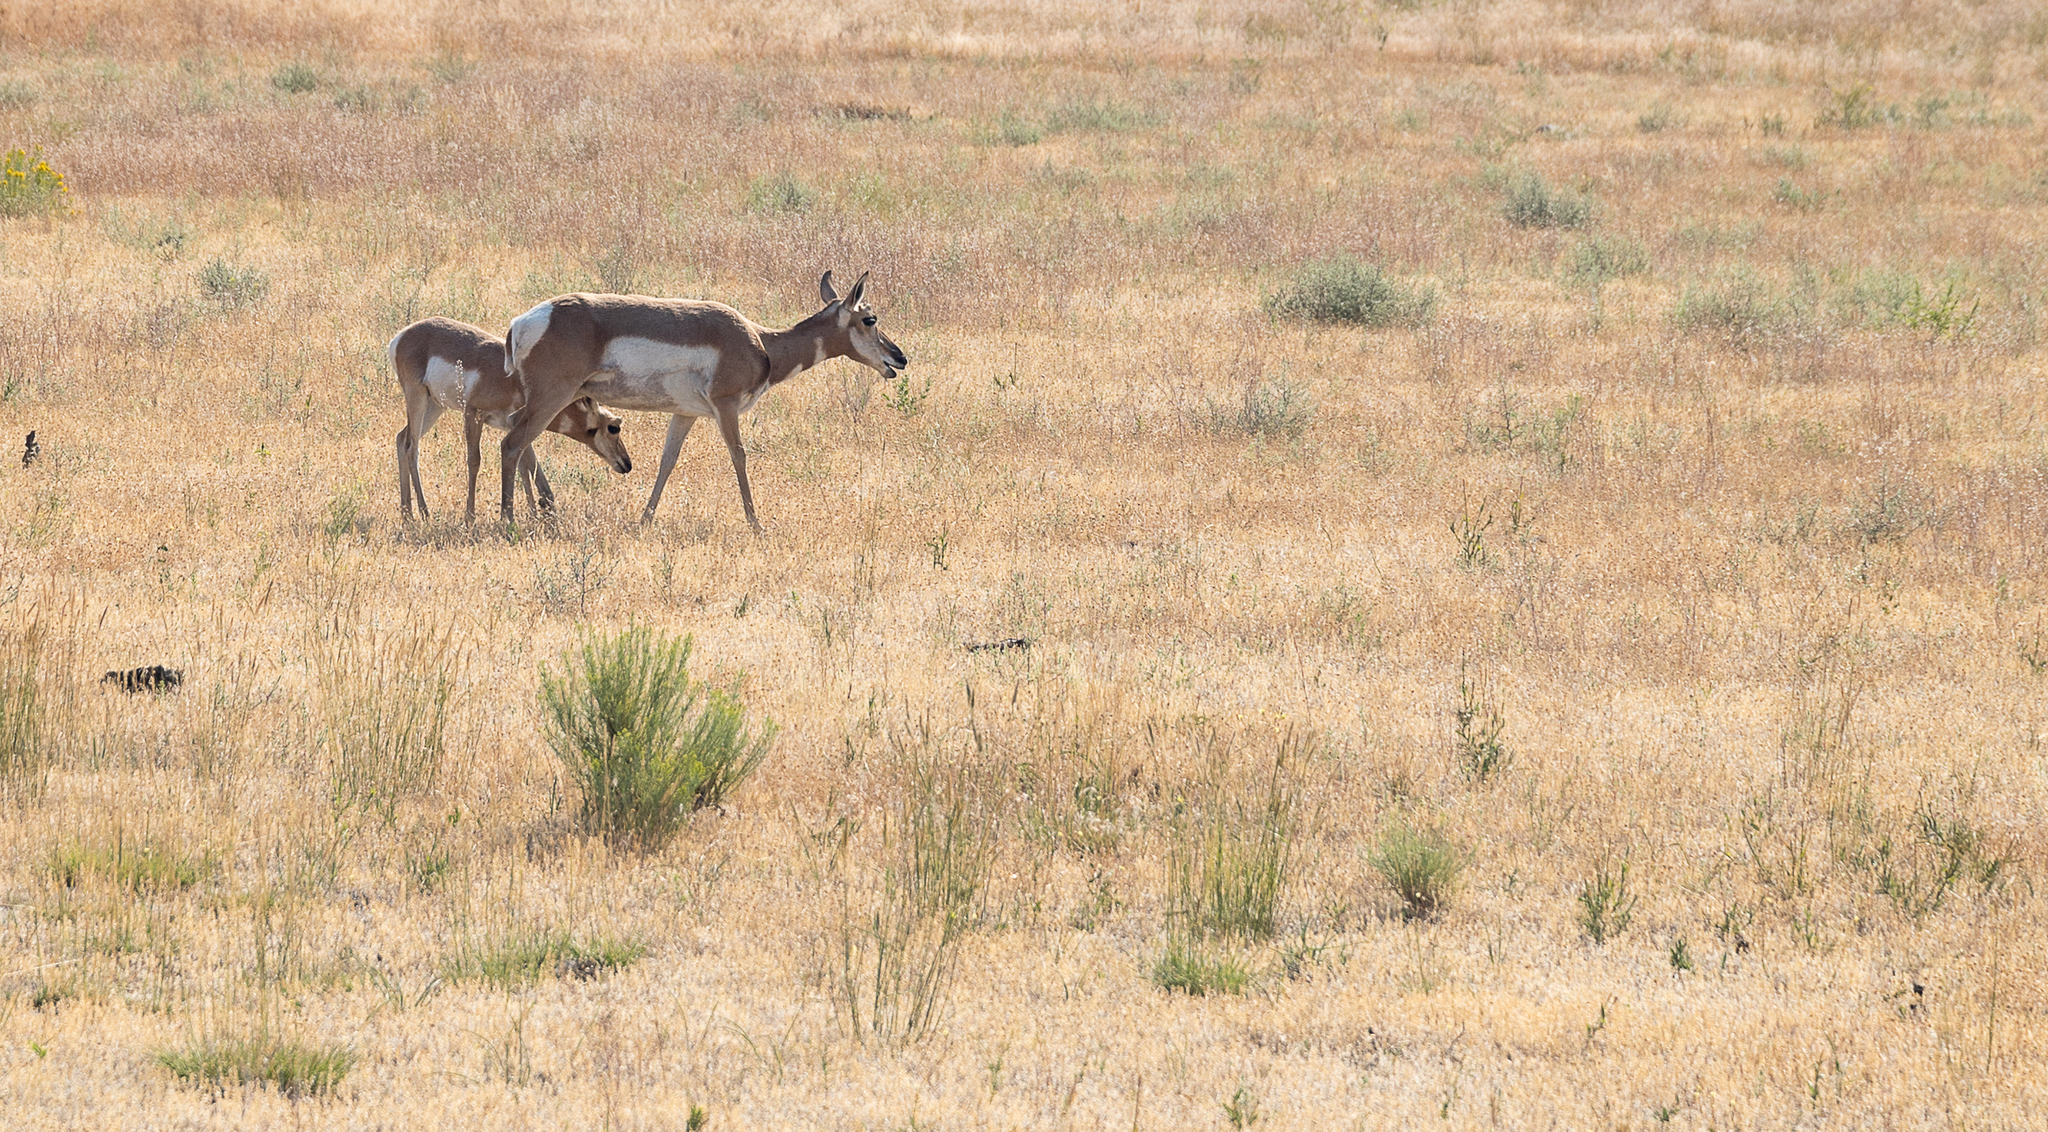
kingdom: Animalia
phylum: Chordata
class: Mammalia
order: Artiodactyla
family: Antilocapridae
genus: Antilocapra
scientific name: Antilocapra americana
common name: Pronghorn
